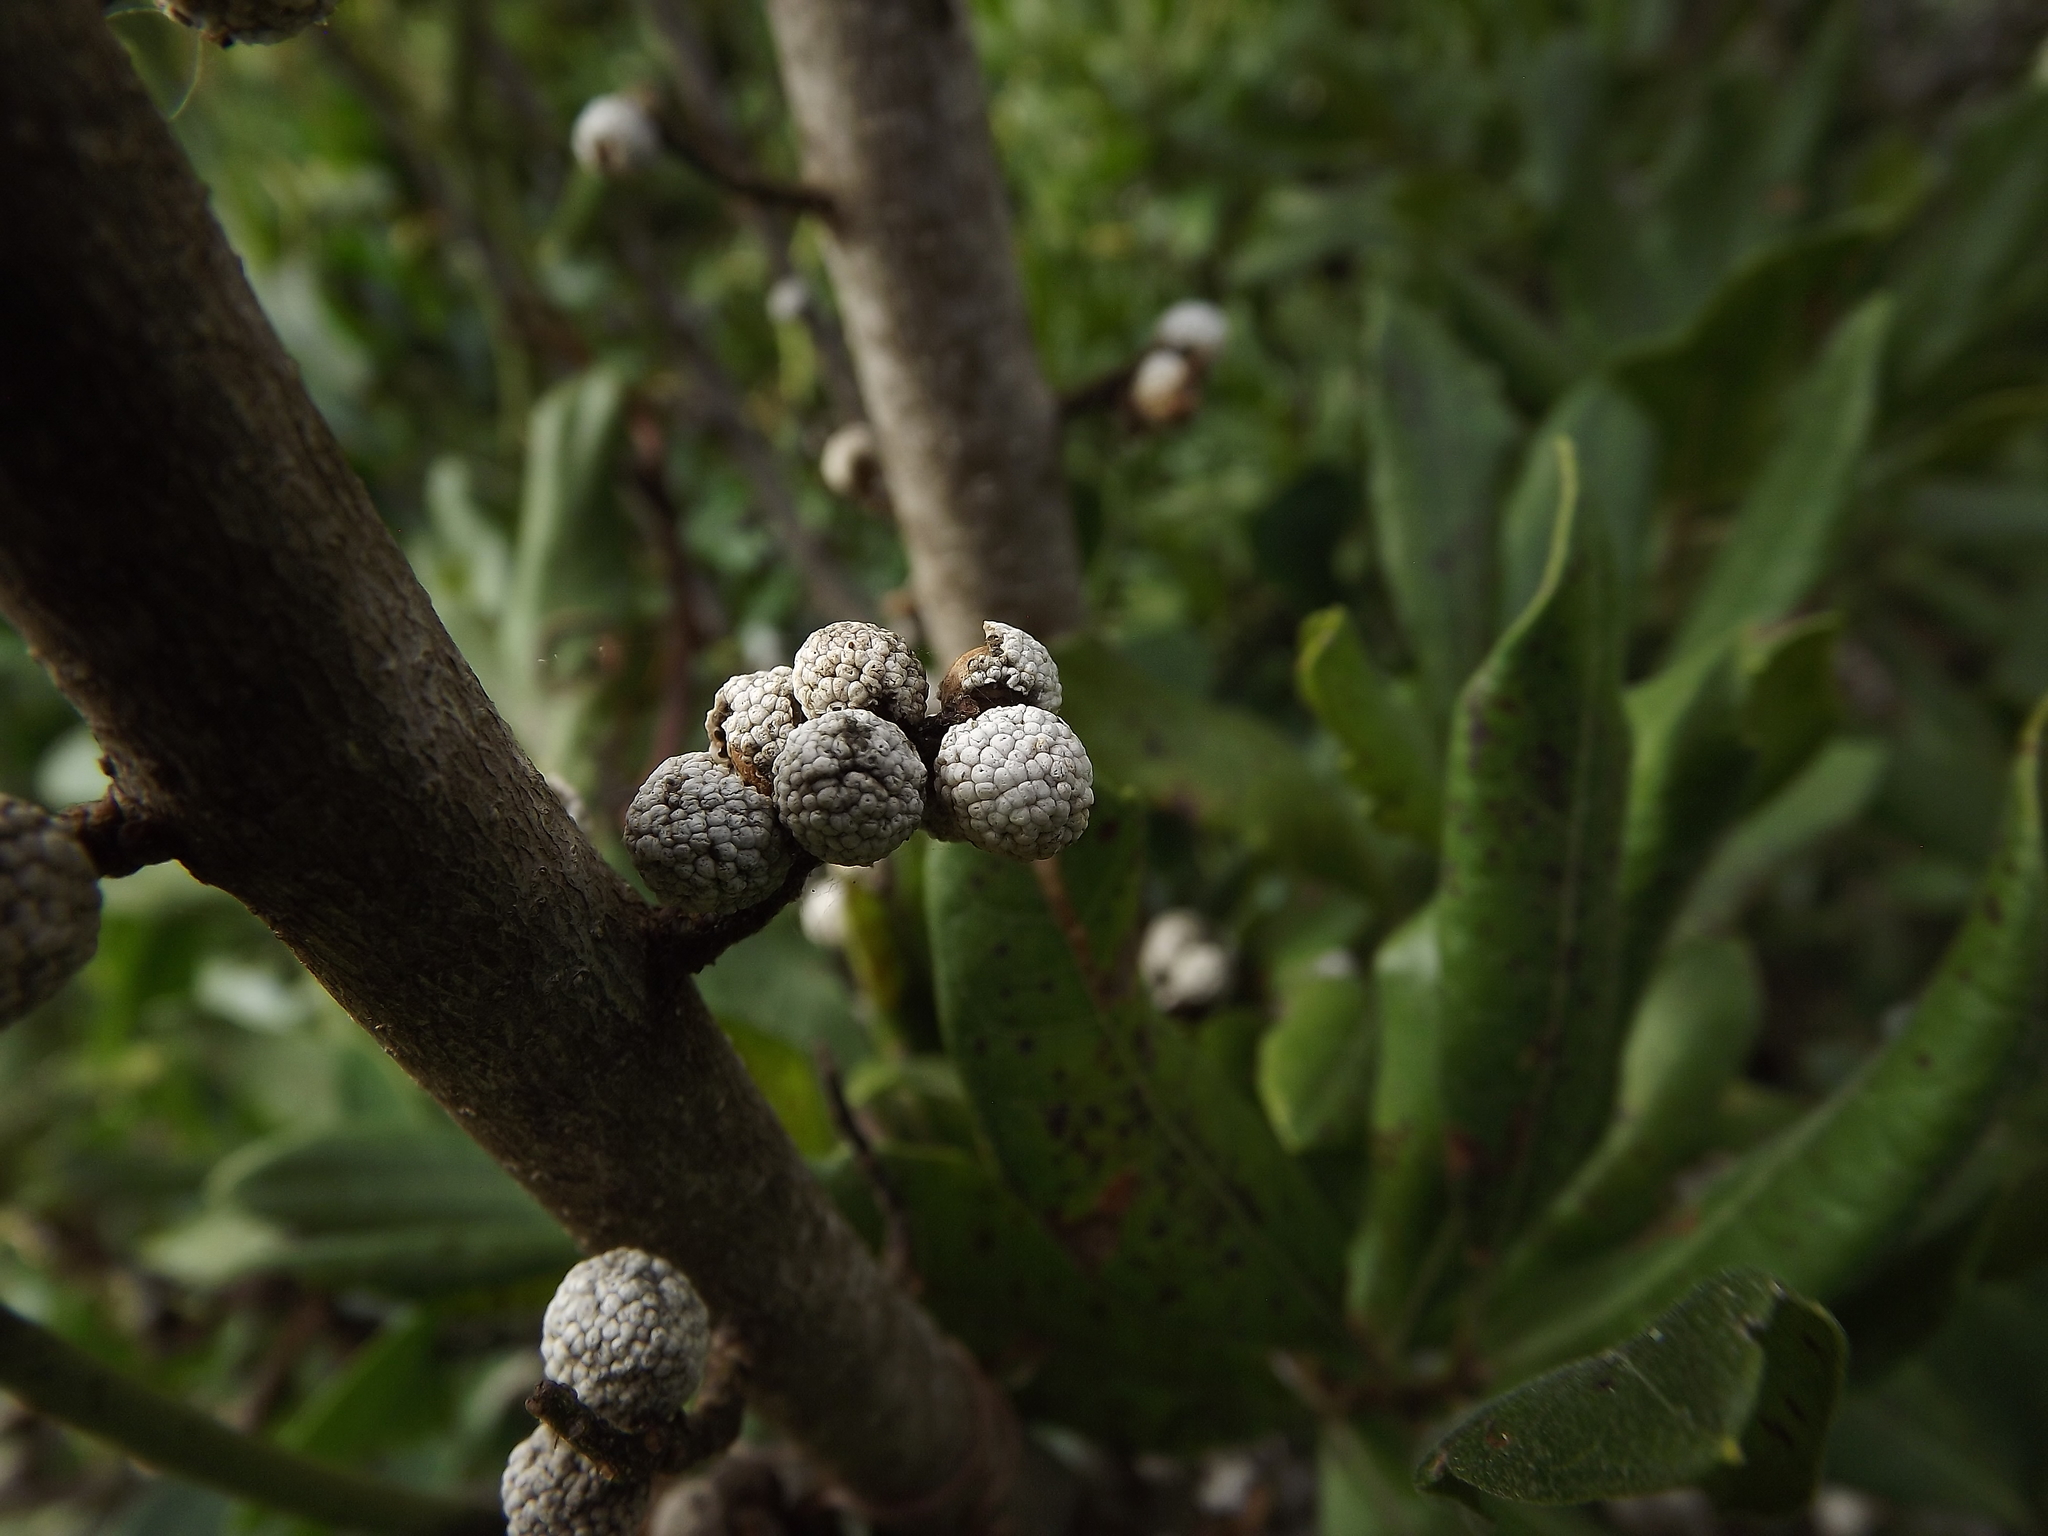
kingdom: Plantae
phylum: Tracheophyta
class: Magnoliopsida
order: Fagales
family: Myricaceae
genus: Morella
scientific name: Morella cerifera
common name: Wax myrtle
